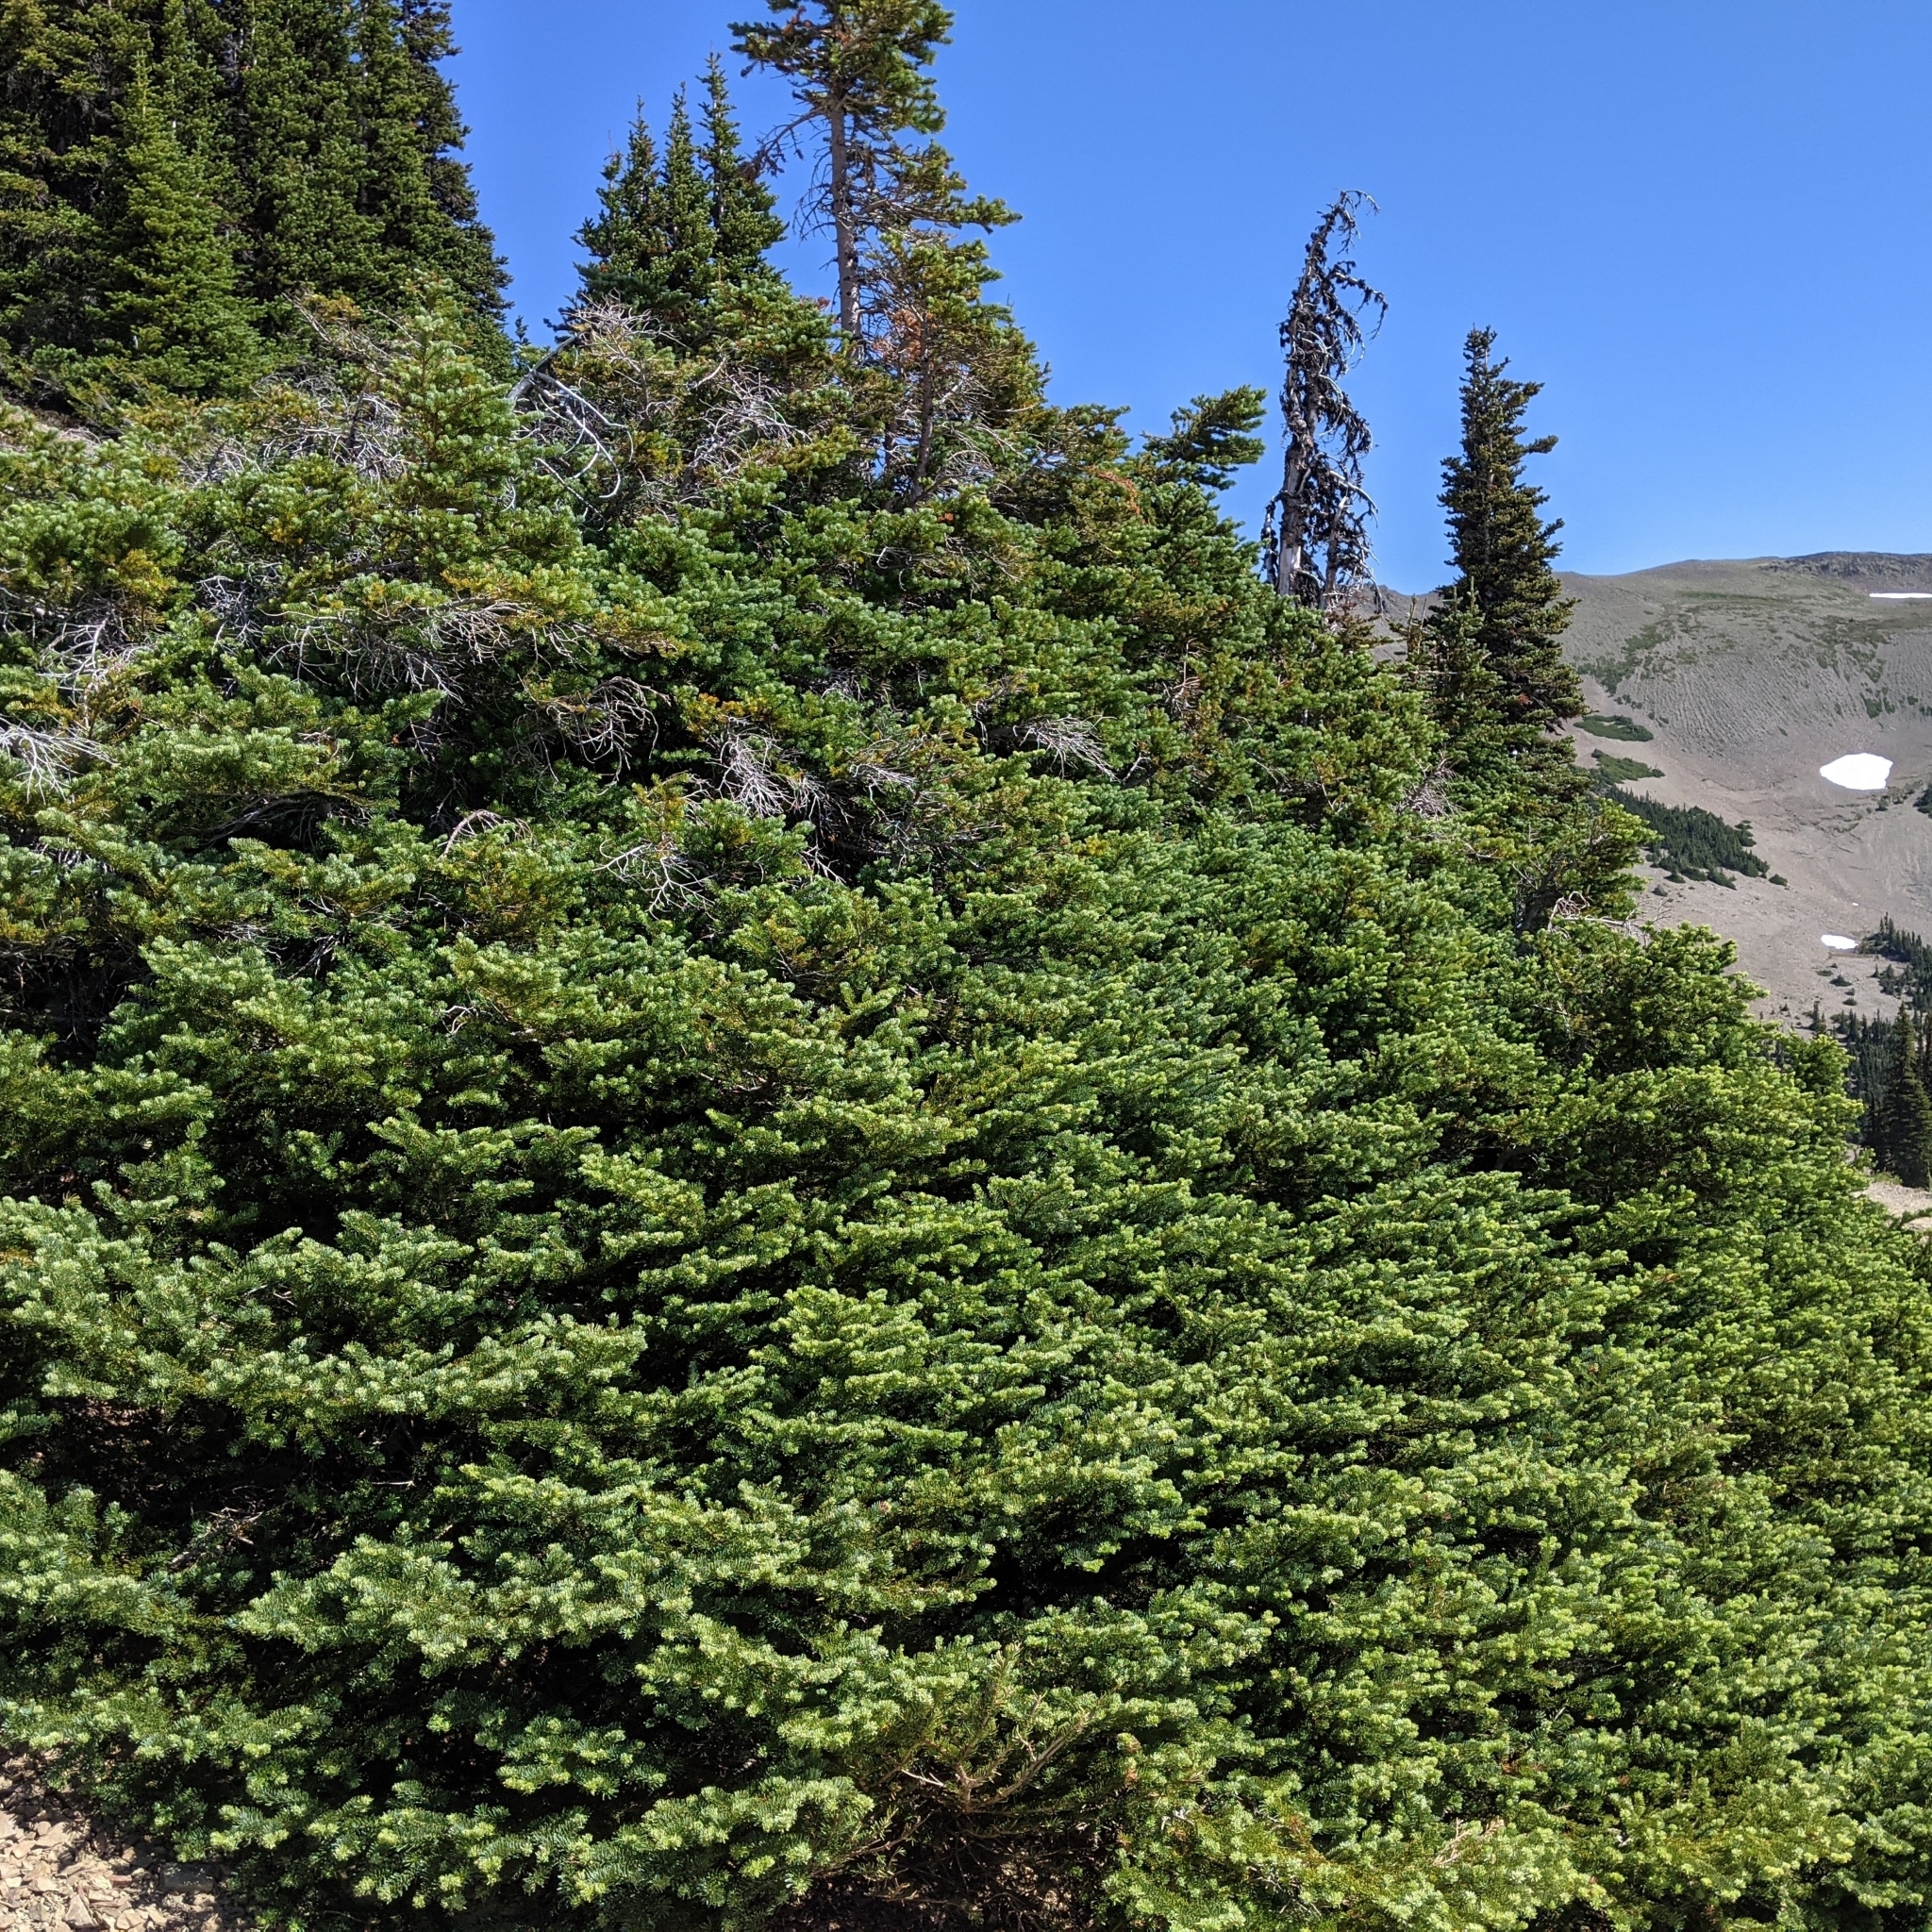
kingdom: Plantae
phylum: Tracheophyta
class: Pinopsida
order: Pinales
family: Pinaceae
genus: Abies
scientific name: Abies lasiocarpa
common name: Subalpine fir
